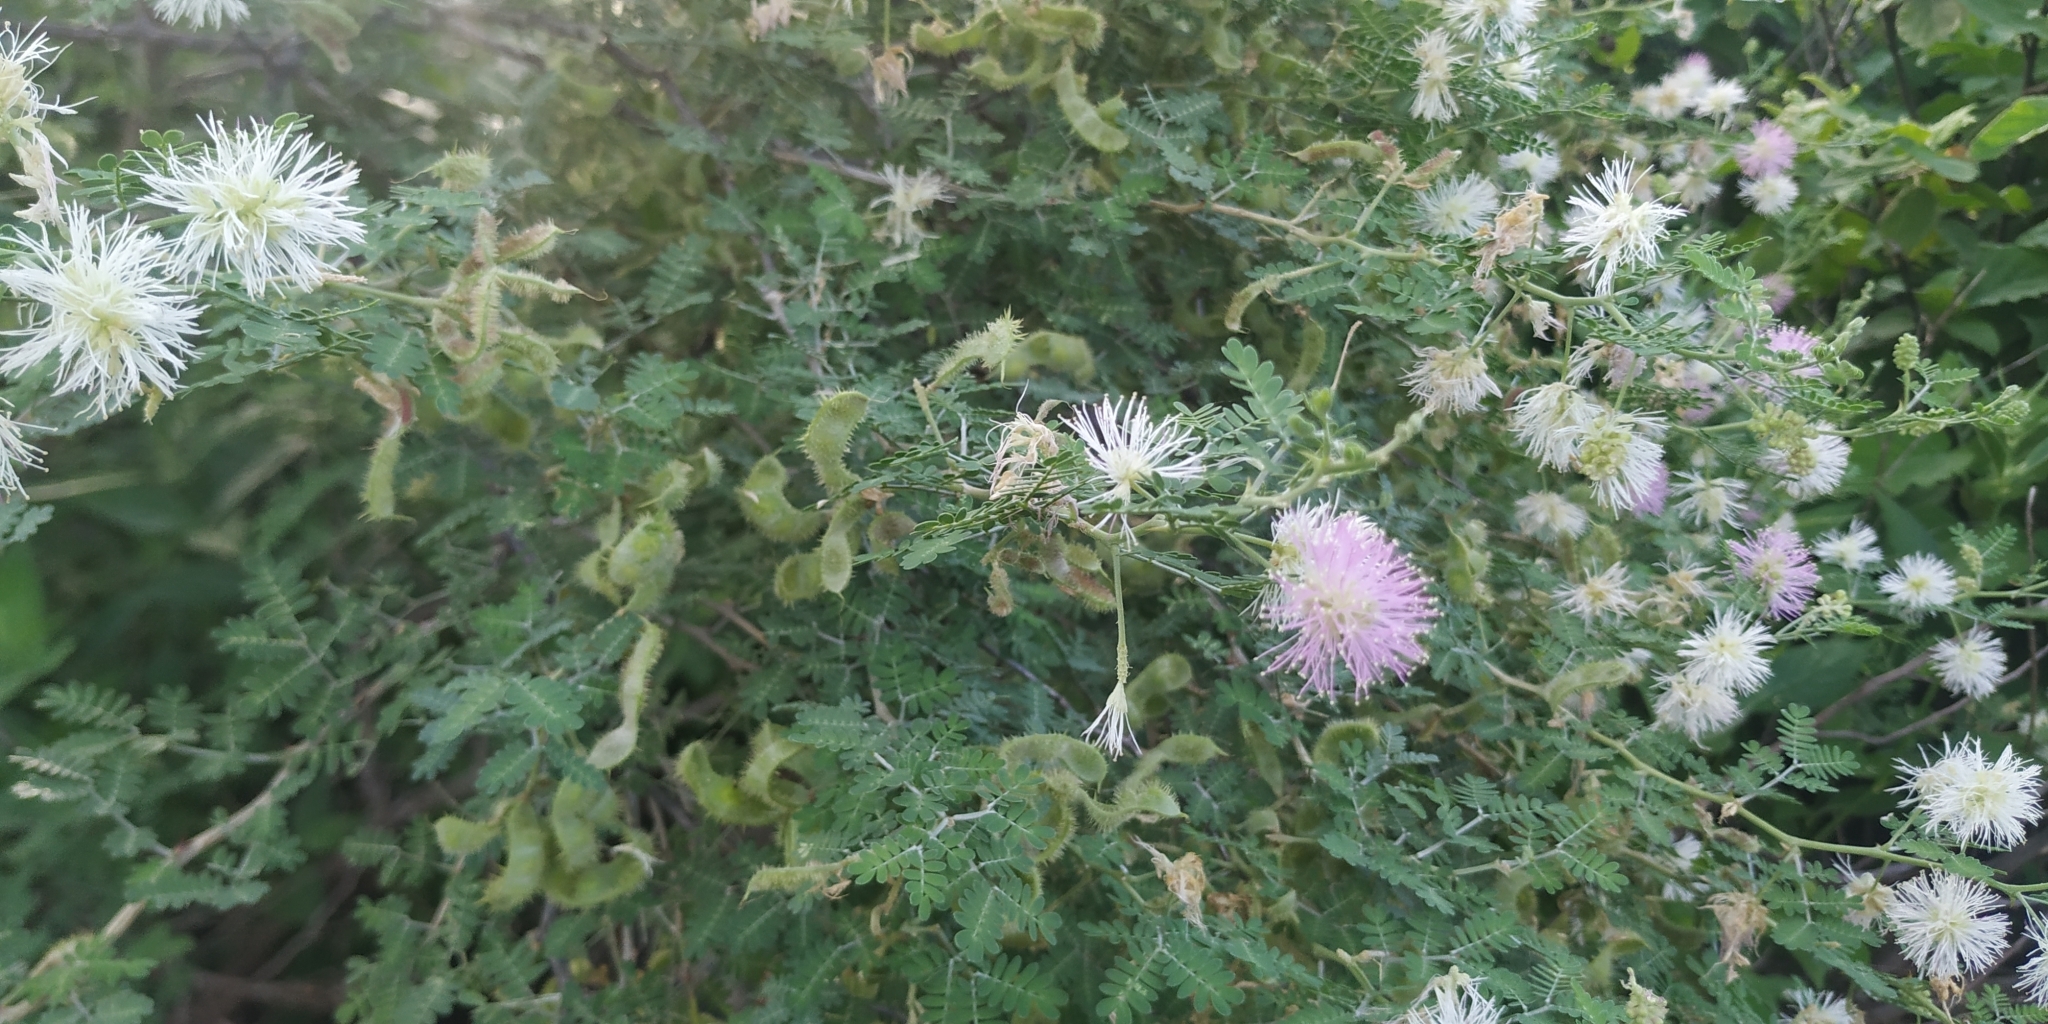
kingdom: Plantae
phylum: Tracheophyta
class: Magnoliopsida
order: Fabales
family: Fabaceae
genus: Mimosa
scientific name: Mimosa monancistra
